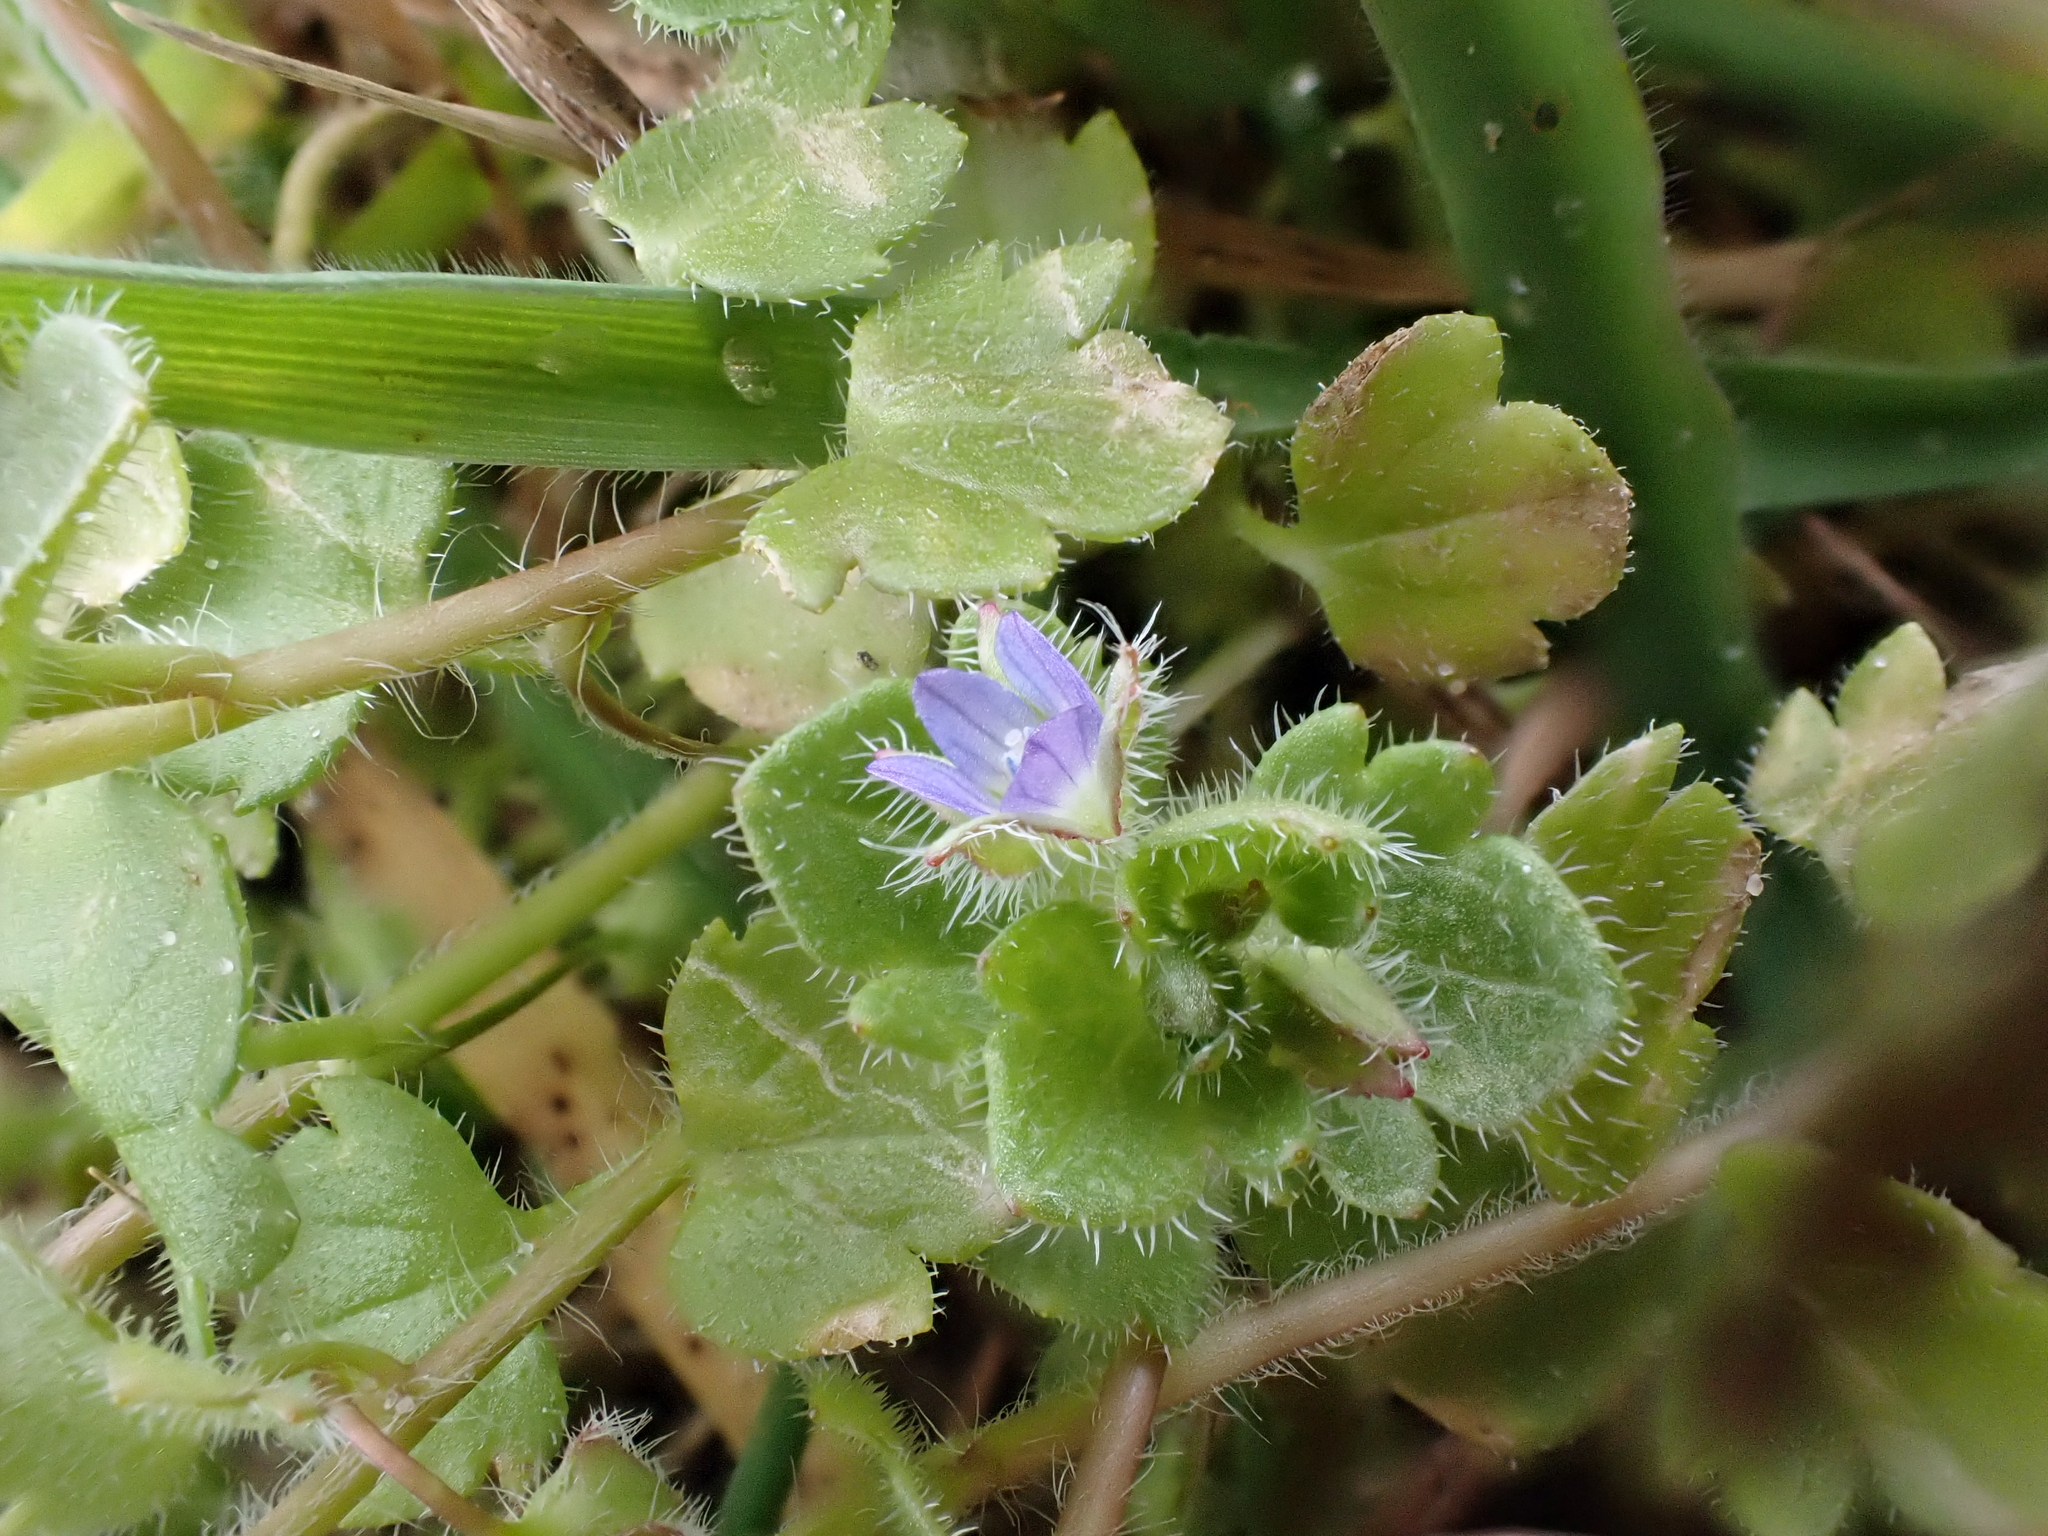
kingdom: Plantae
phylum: Tracheophyta
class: Magnoliopsida
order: Lamiales
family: Plantaginaceae
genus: Veronica
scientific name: Veronica hederifolia
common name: Ivy-leaved speedwell
